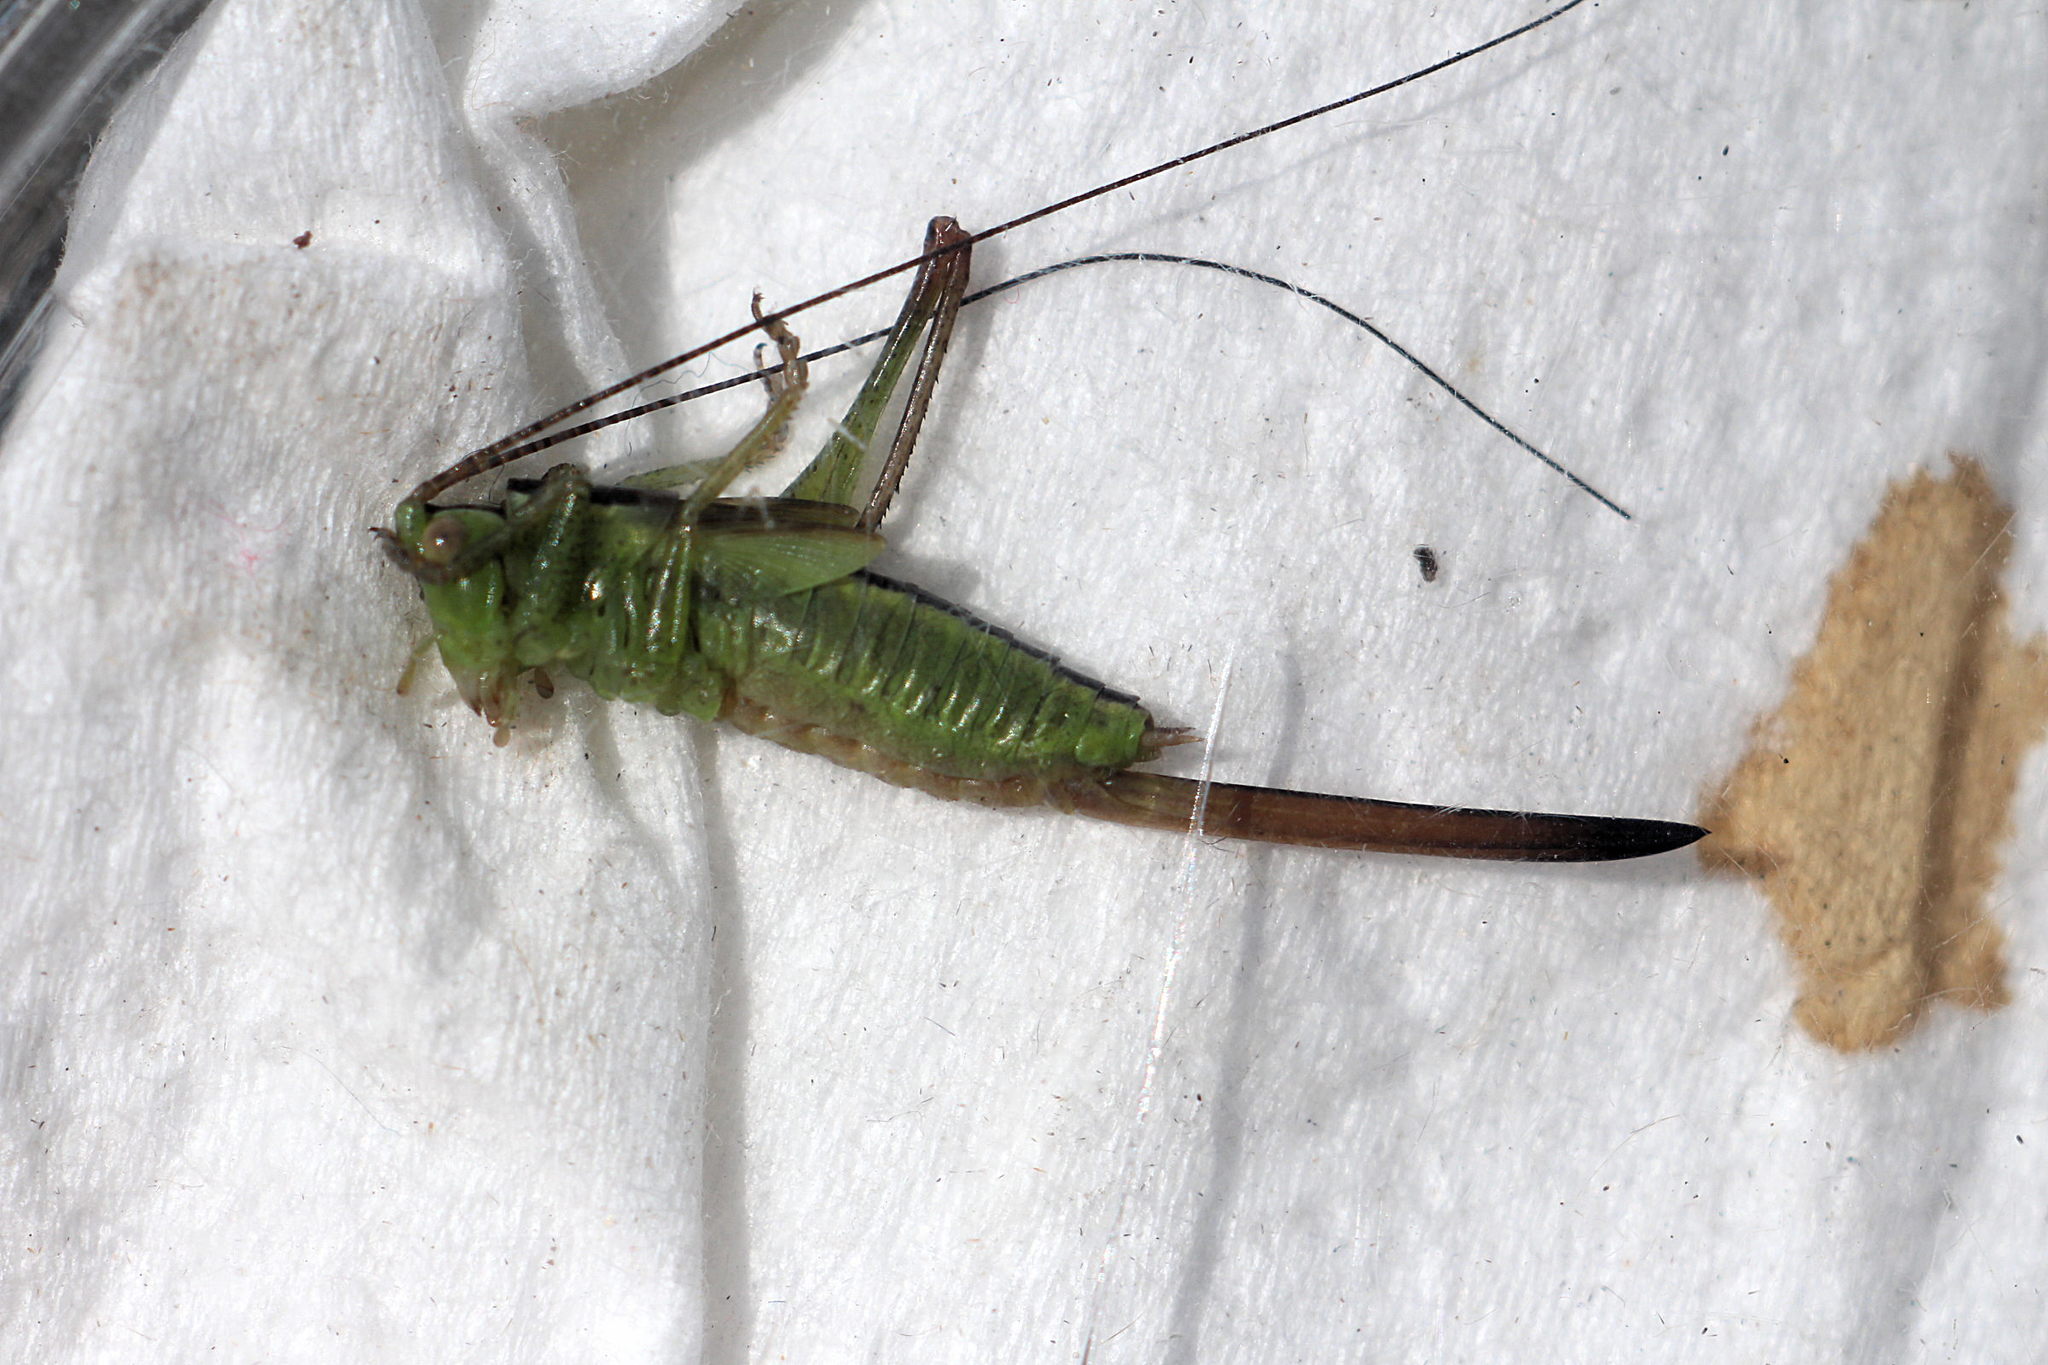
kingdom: Animalia
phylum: Arthropoda
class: Insecta
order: Orthoptera
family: Tettigoniidae
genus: Conocephalus
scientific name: Conocephalus fuscus
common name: Long-winged conehead
